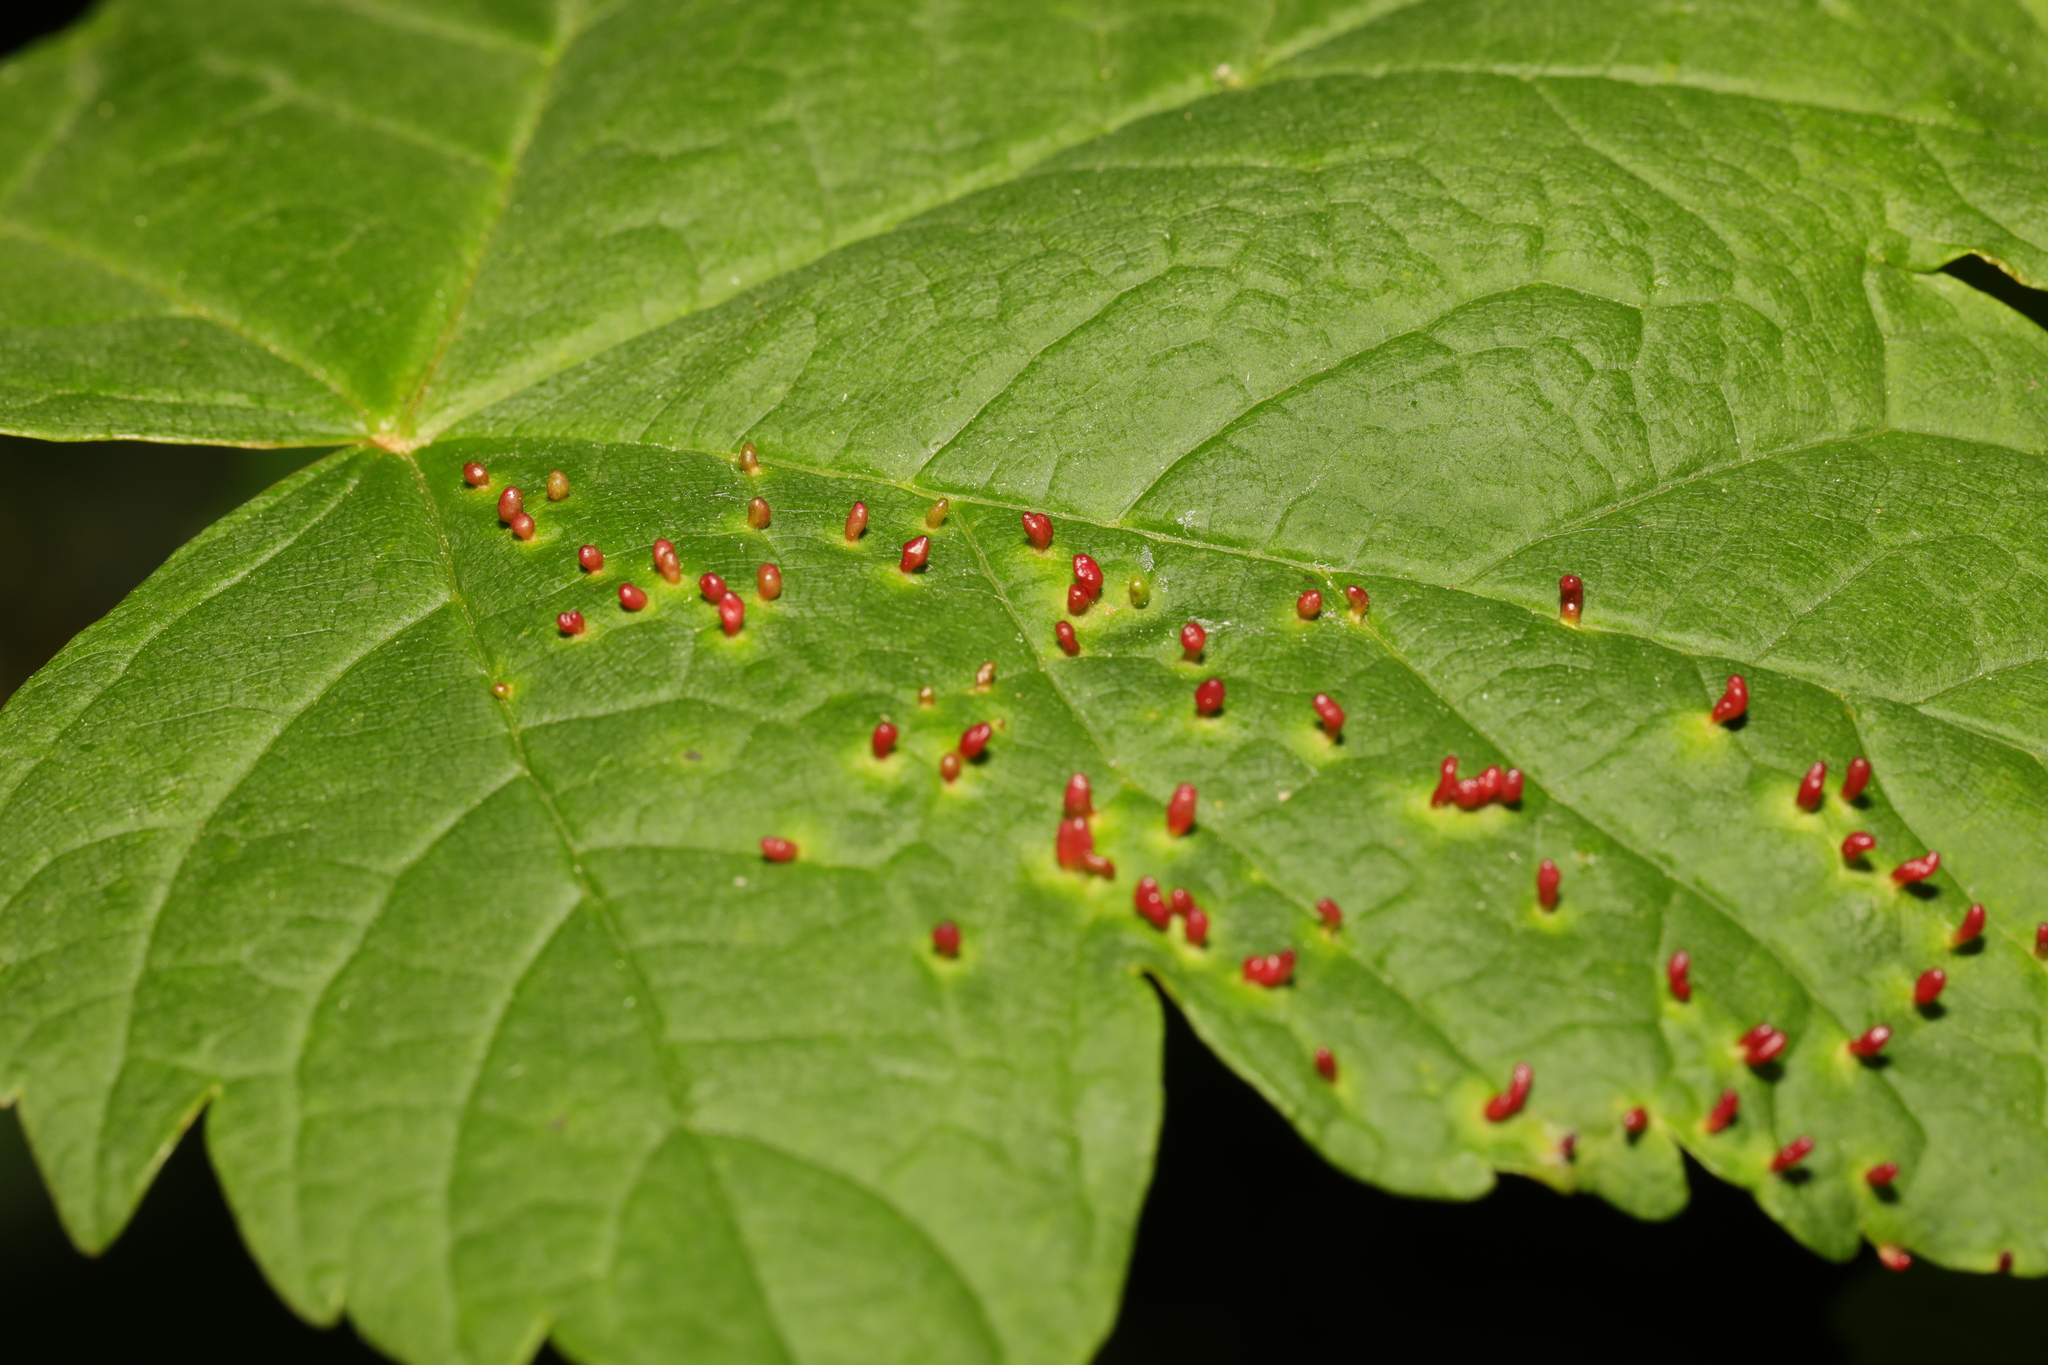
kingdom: Animalia
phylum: Arthropoda
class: Arachnida
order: Trombidiformes
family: Eriophyidae
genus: Aceria
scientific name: Aceria cephaloneus
